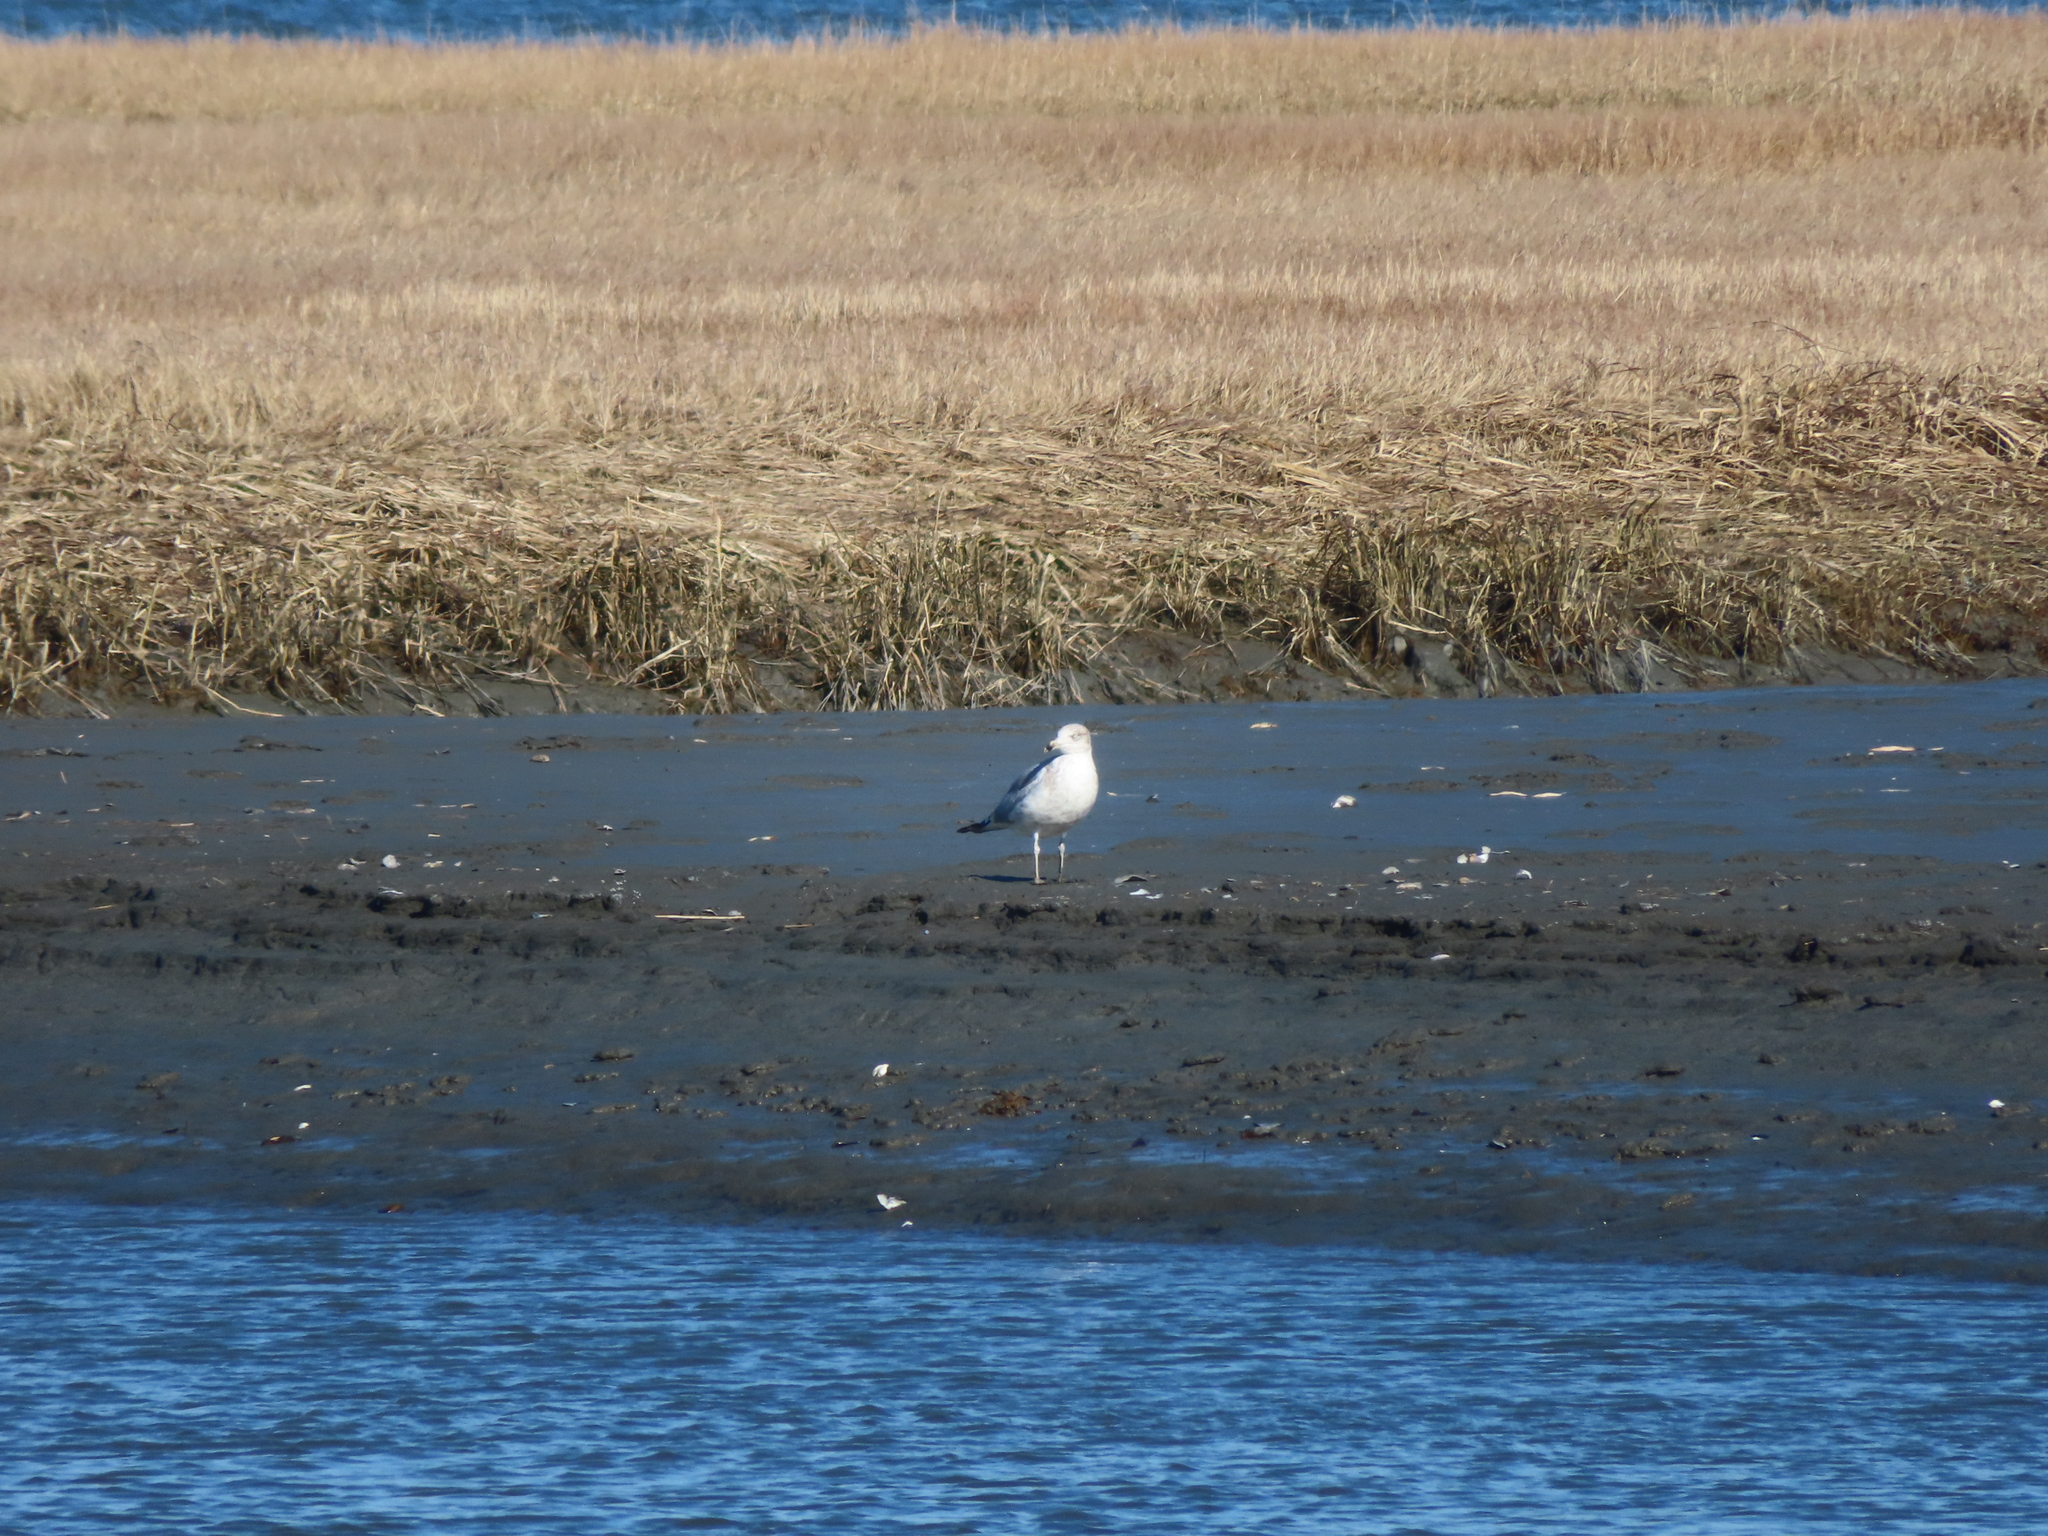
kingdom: Animalia
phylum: Chordata
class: Aves
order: Charadriiformes
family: Laridae
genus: Larus
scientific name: Larus delawarensis
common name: Ring-billed gull
